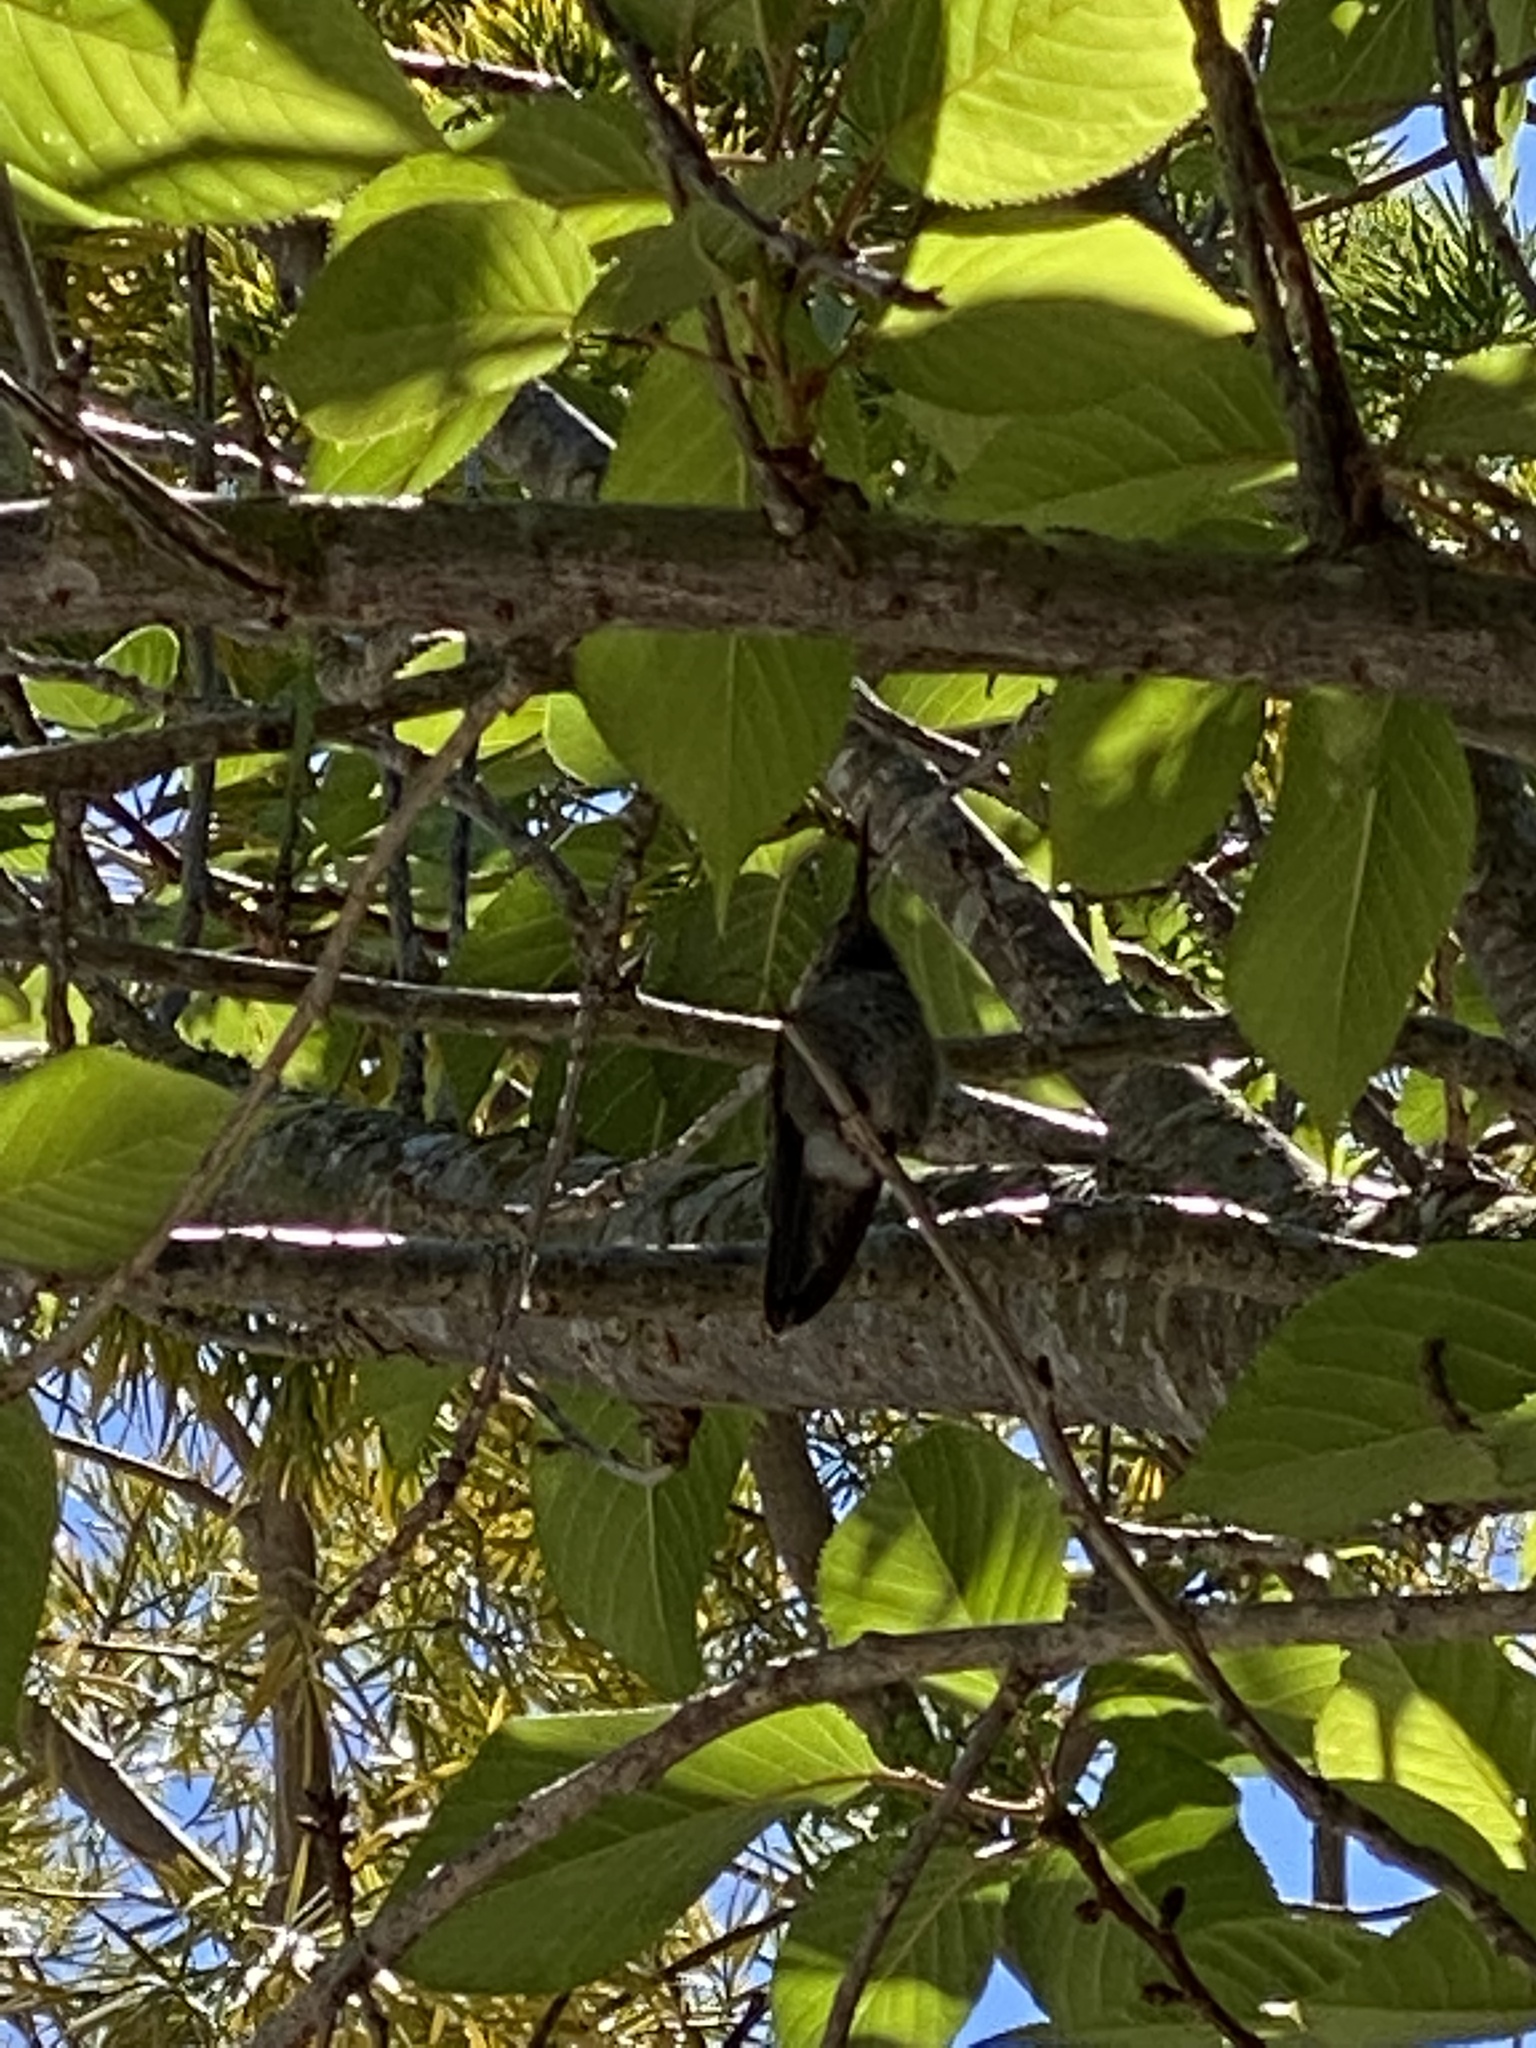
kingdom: Animalia
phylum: Chordata
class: Aves
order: Apodiformes
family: Trochilidae
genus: Calypte
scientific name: Calypte anna
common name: Anna's hummingbird
